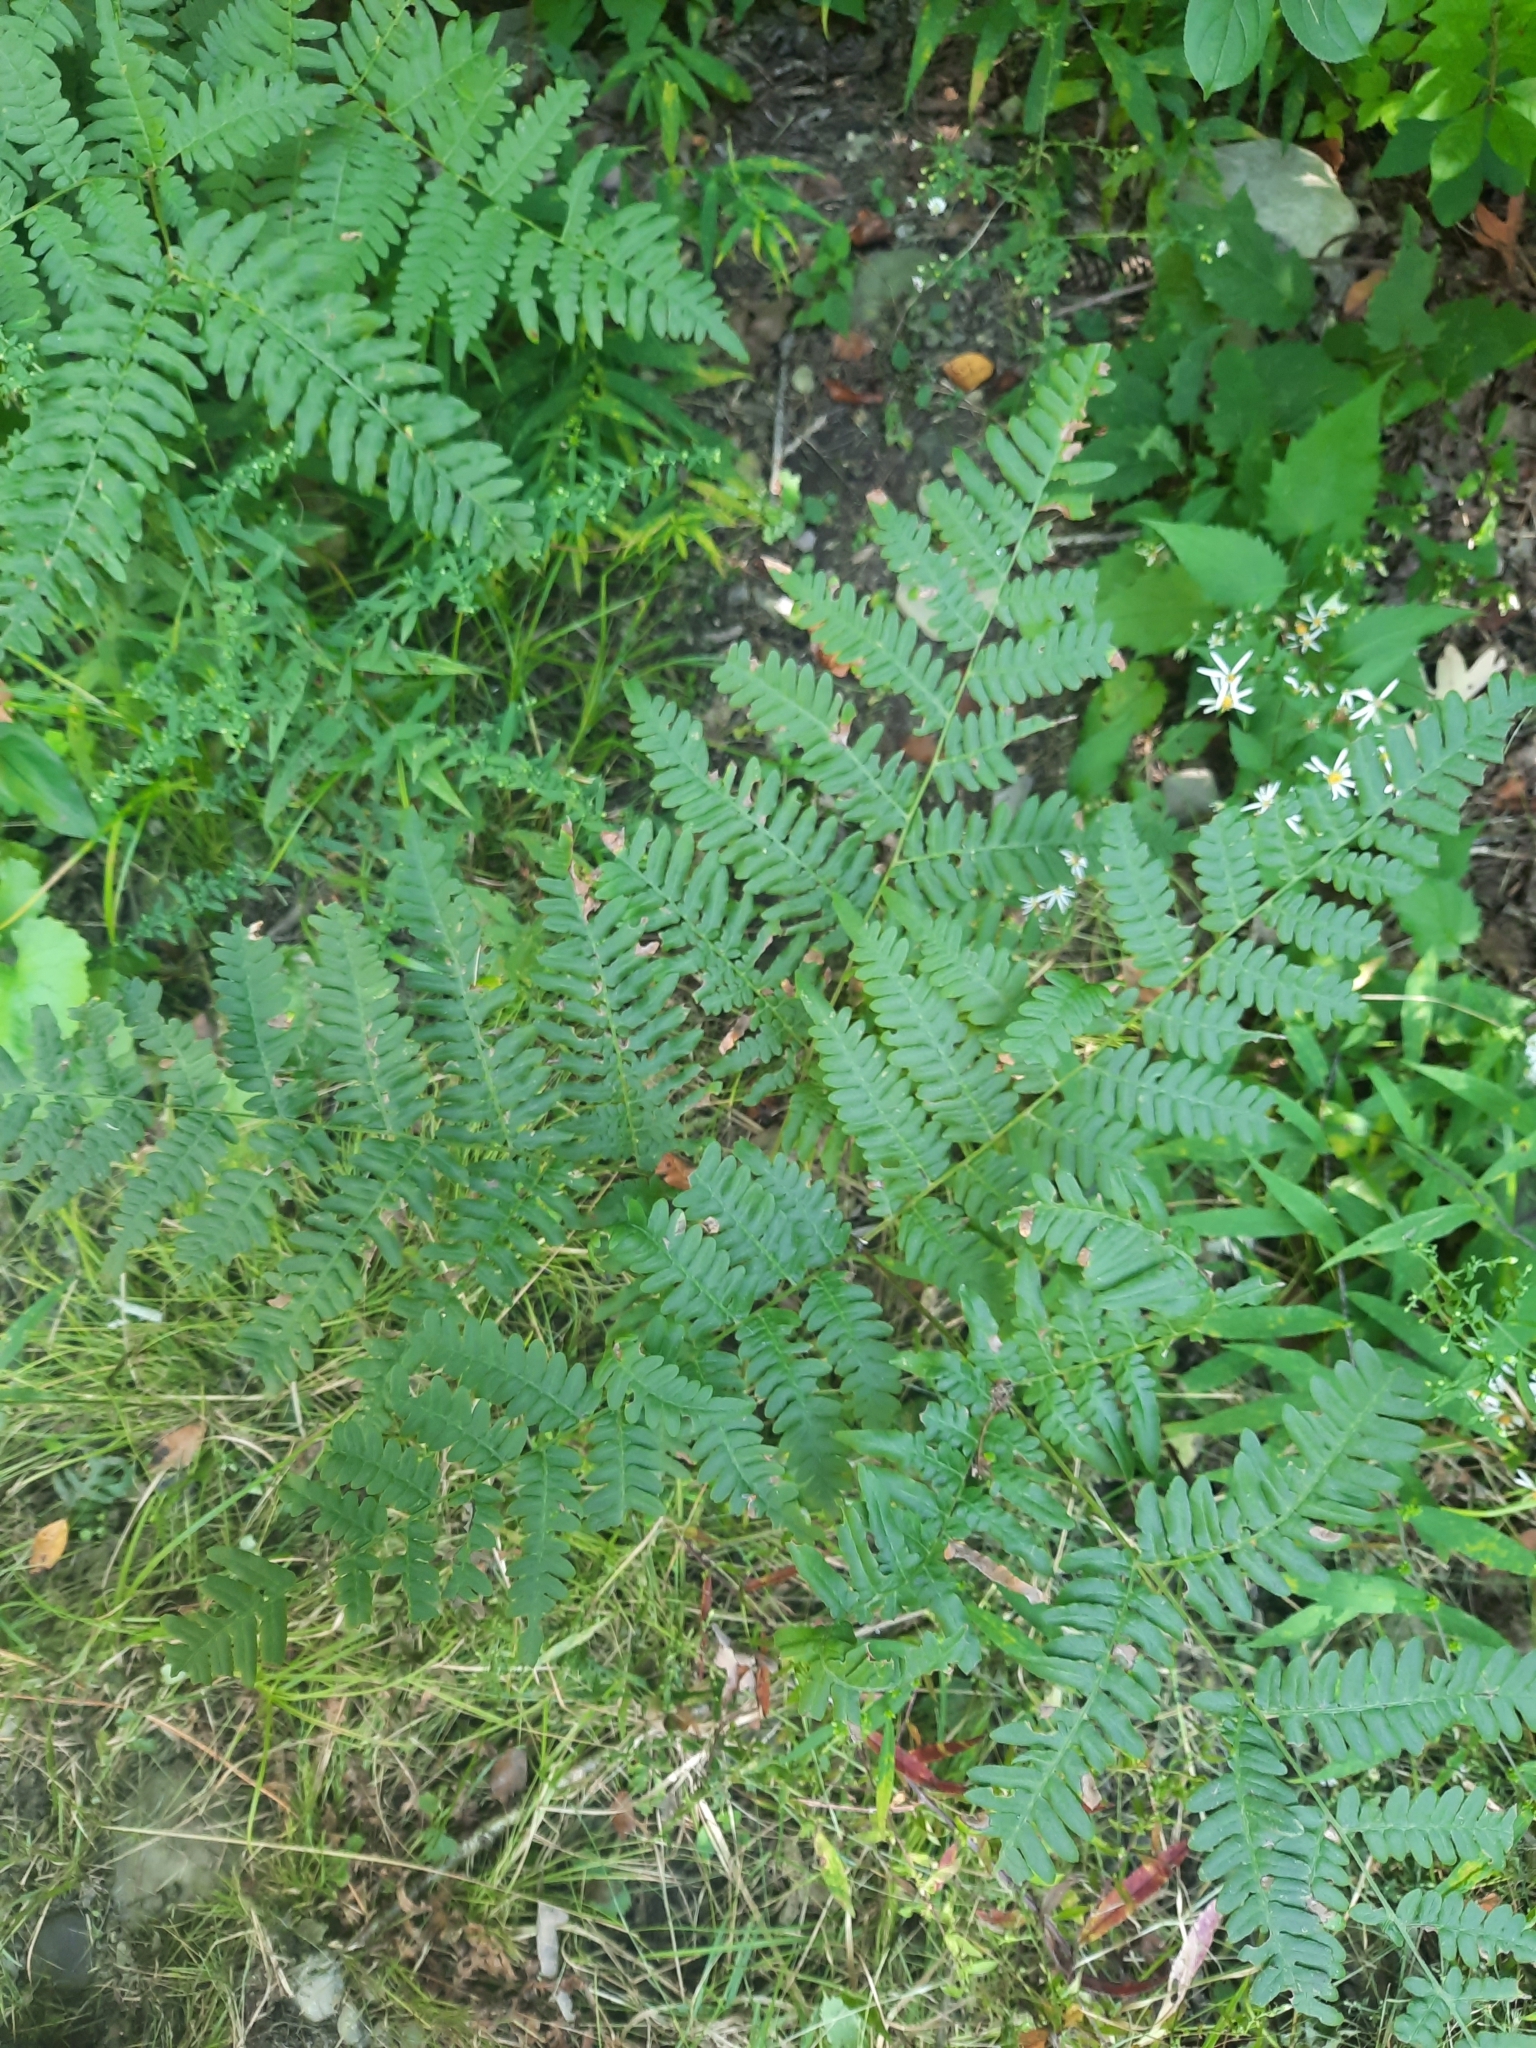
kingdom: Plantae
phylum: Tracheophyta
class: Polypodiopsida
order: Polypodiales
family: Dennstaedtiaceae
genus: Pteridium
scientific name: Pteridium aquilinum
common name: Bracken
